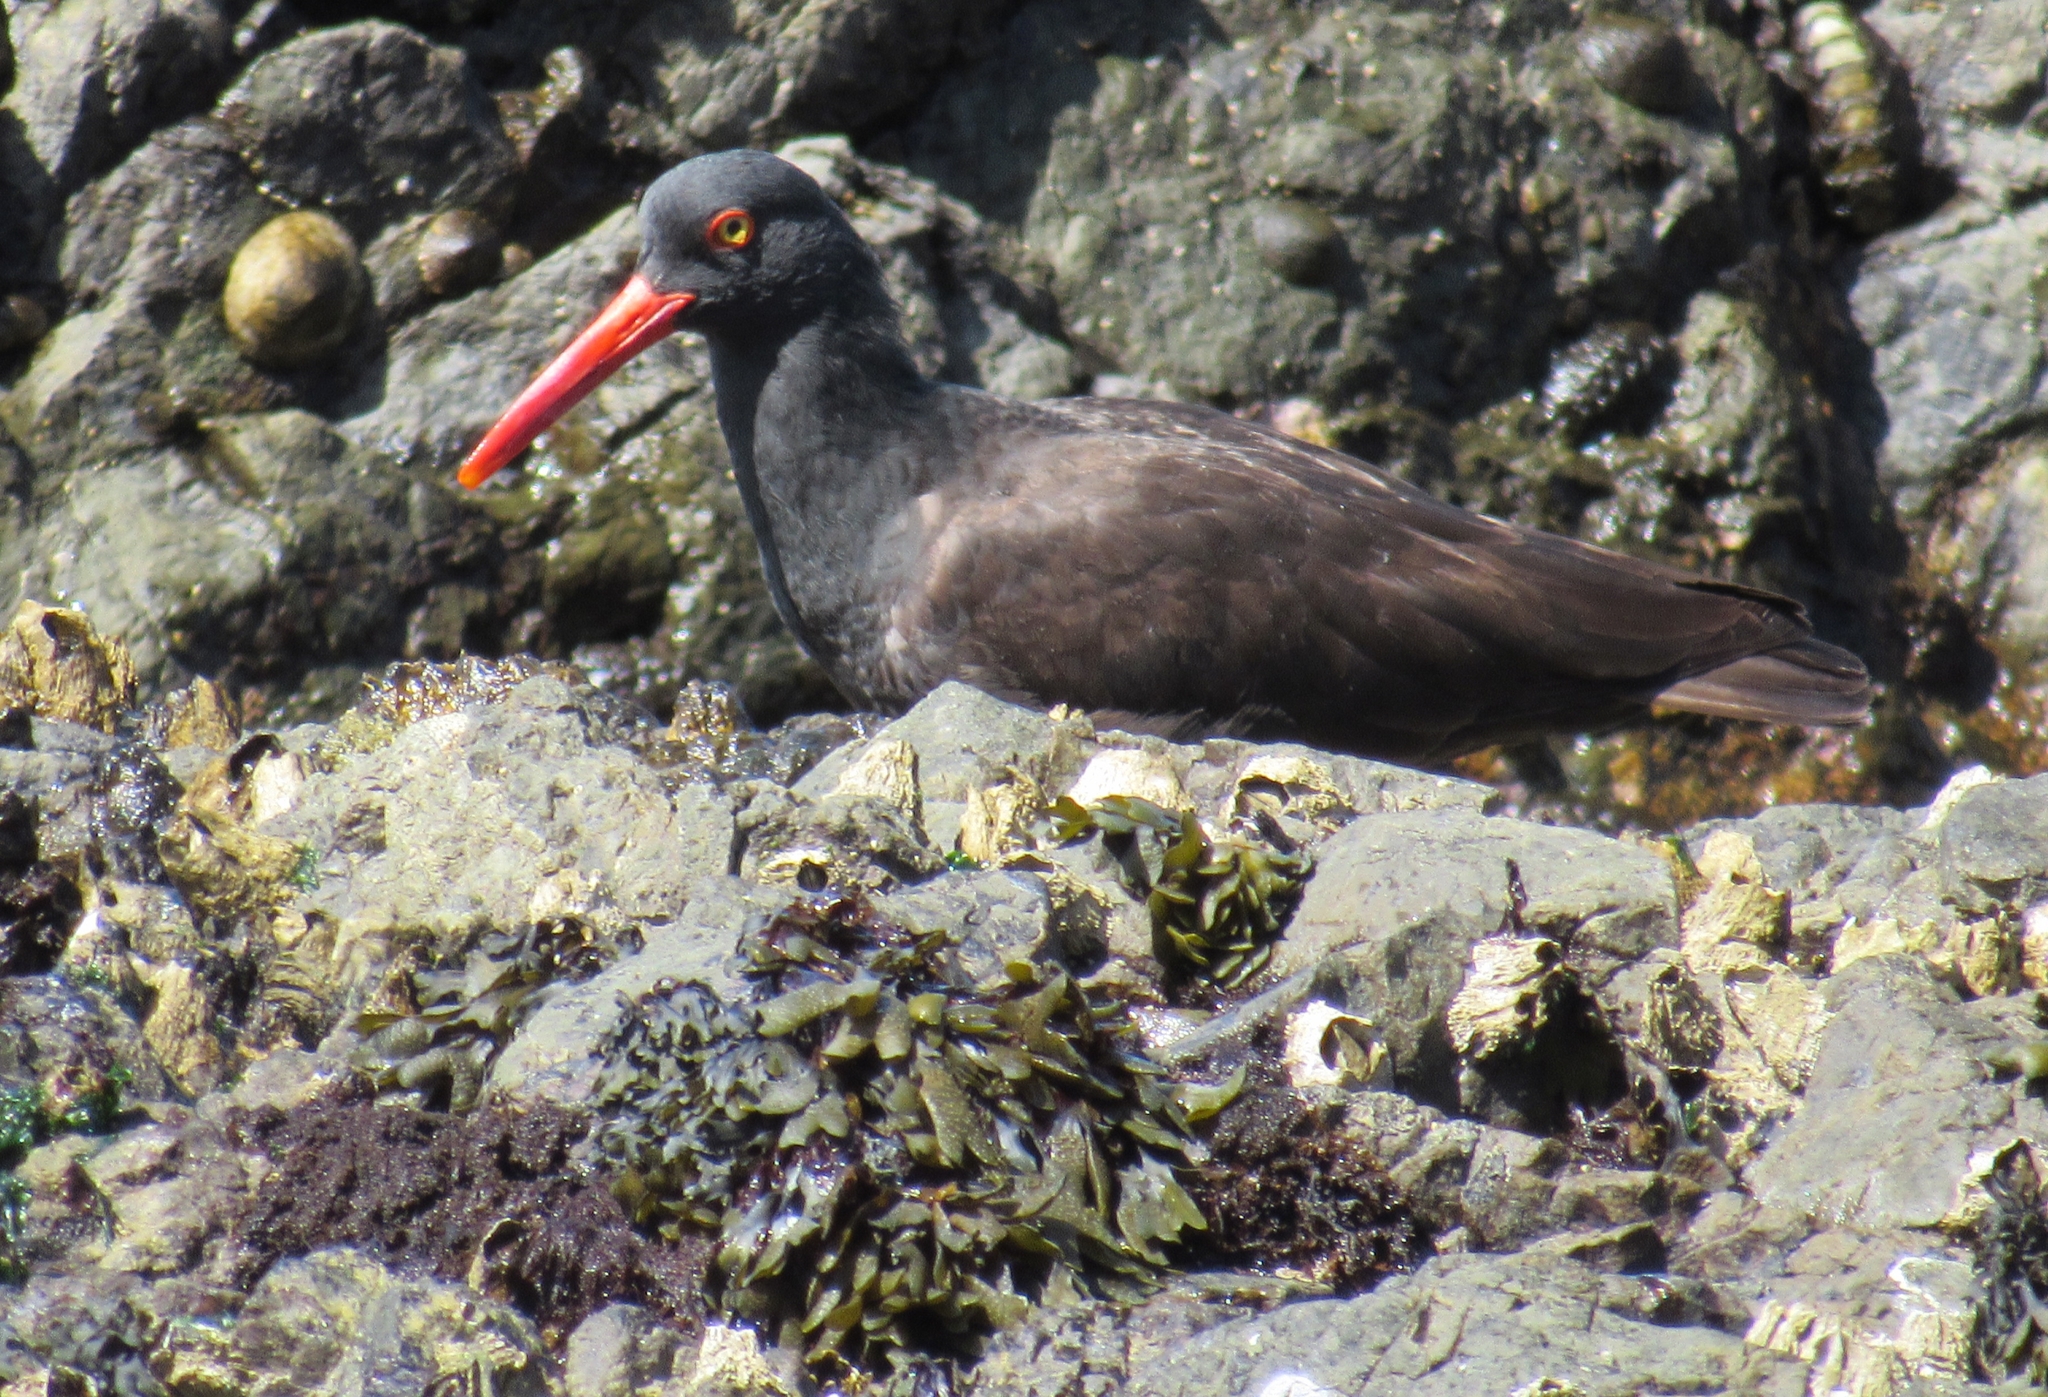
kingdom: Animalia
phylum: Chordata
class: Aves
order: Charadriiformes
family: Haematopodidae
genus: Haematopus
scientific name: Haematopus bachmani
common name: Black oystercatcher
